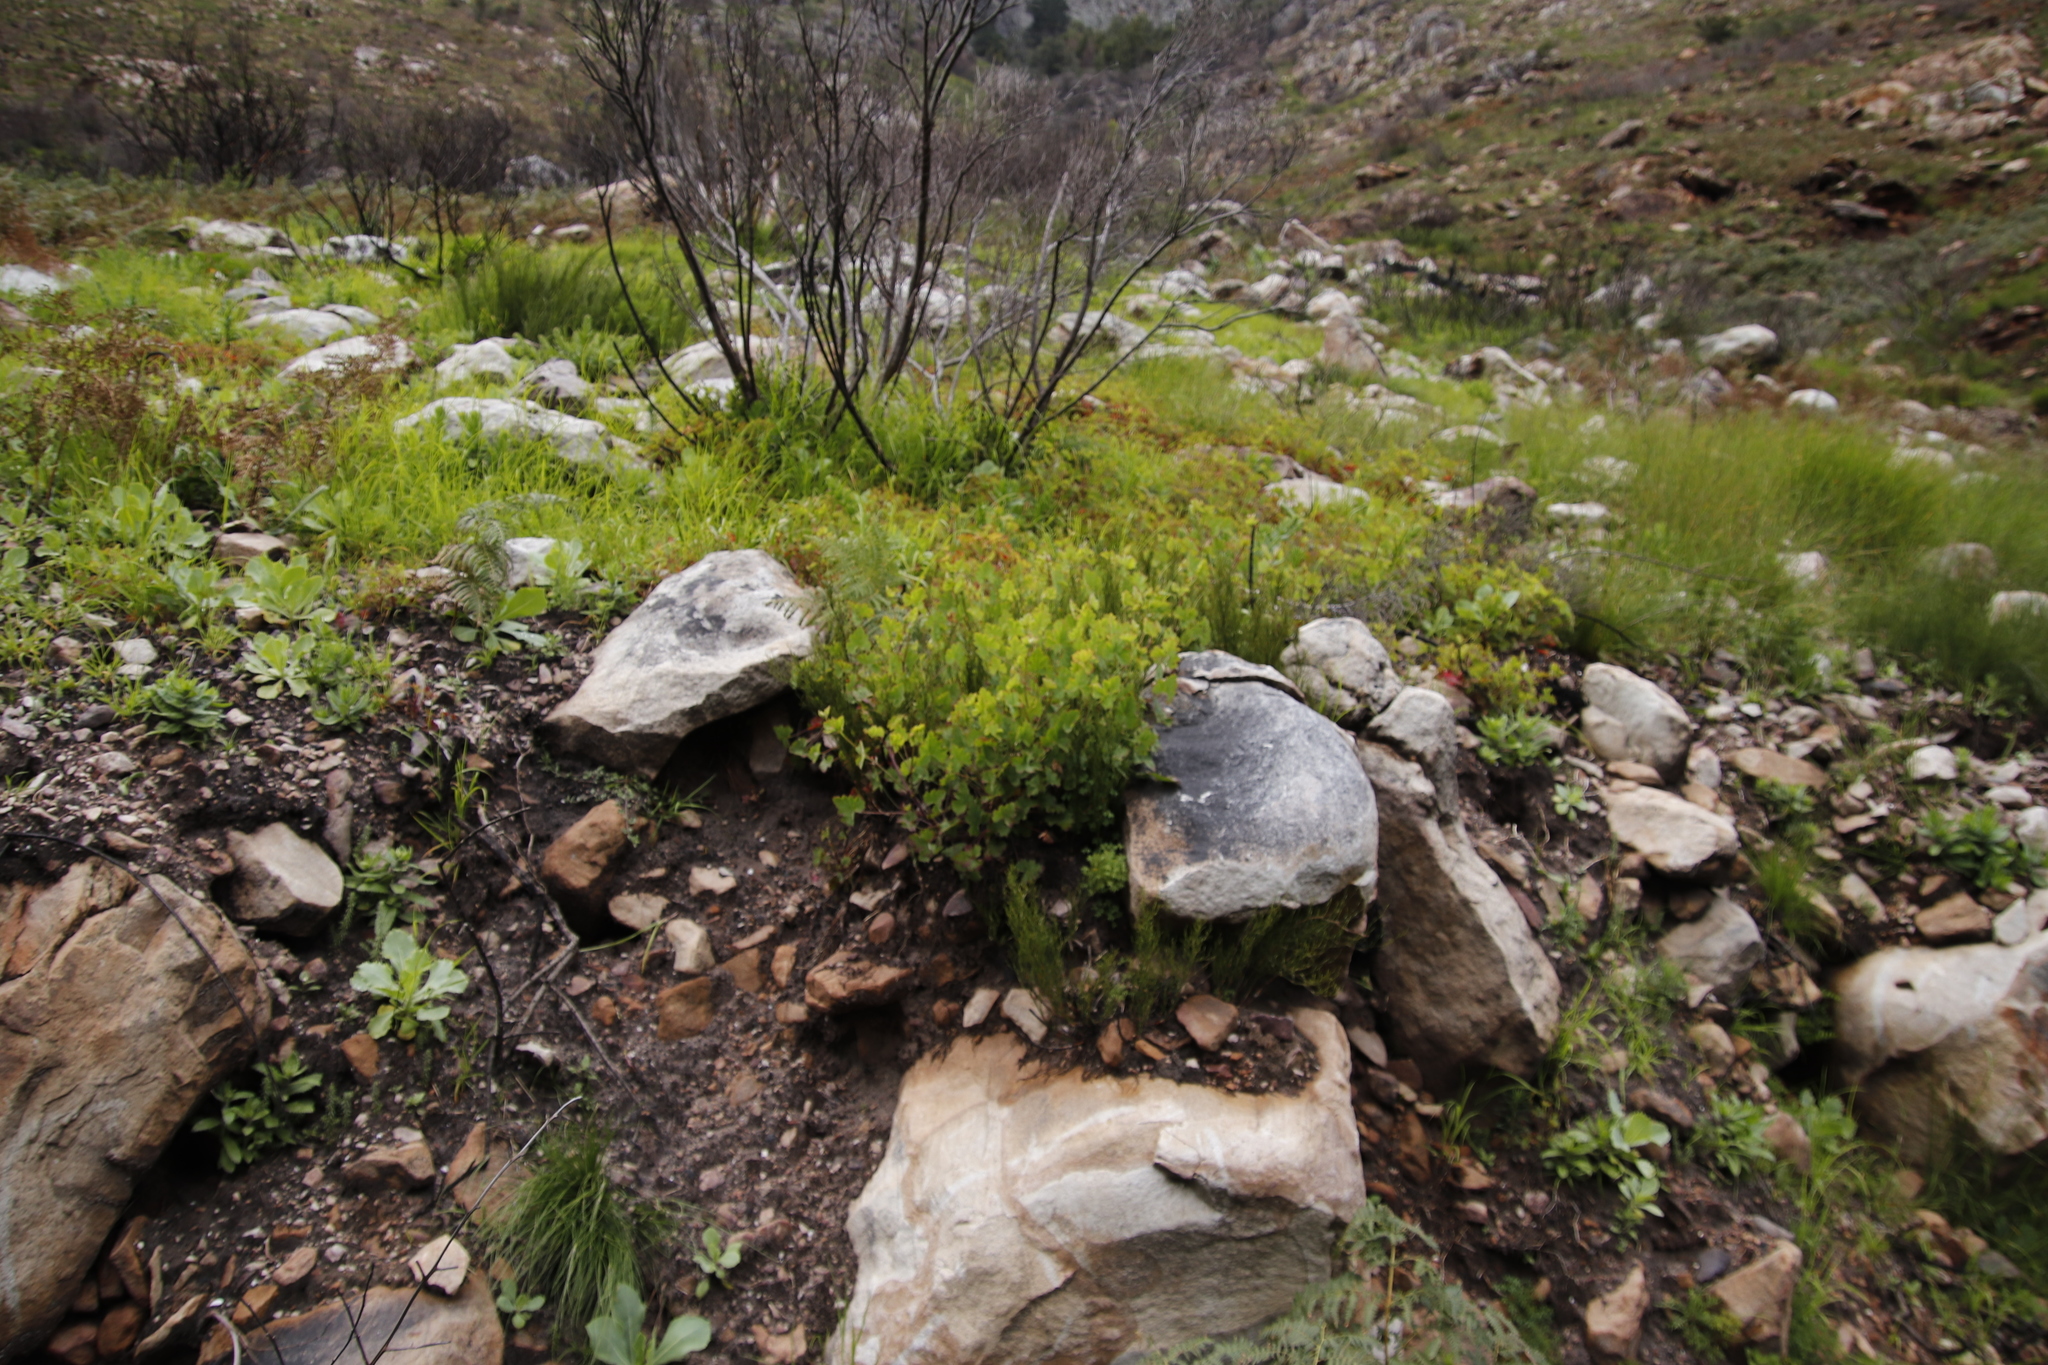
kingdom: Plantae
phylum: Tracheophyta
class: Magnoliopsida
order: Geraniales
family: Geraniaceae
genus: Pelargonium
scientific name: Pelargonium patulum
